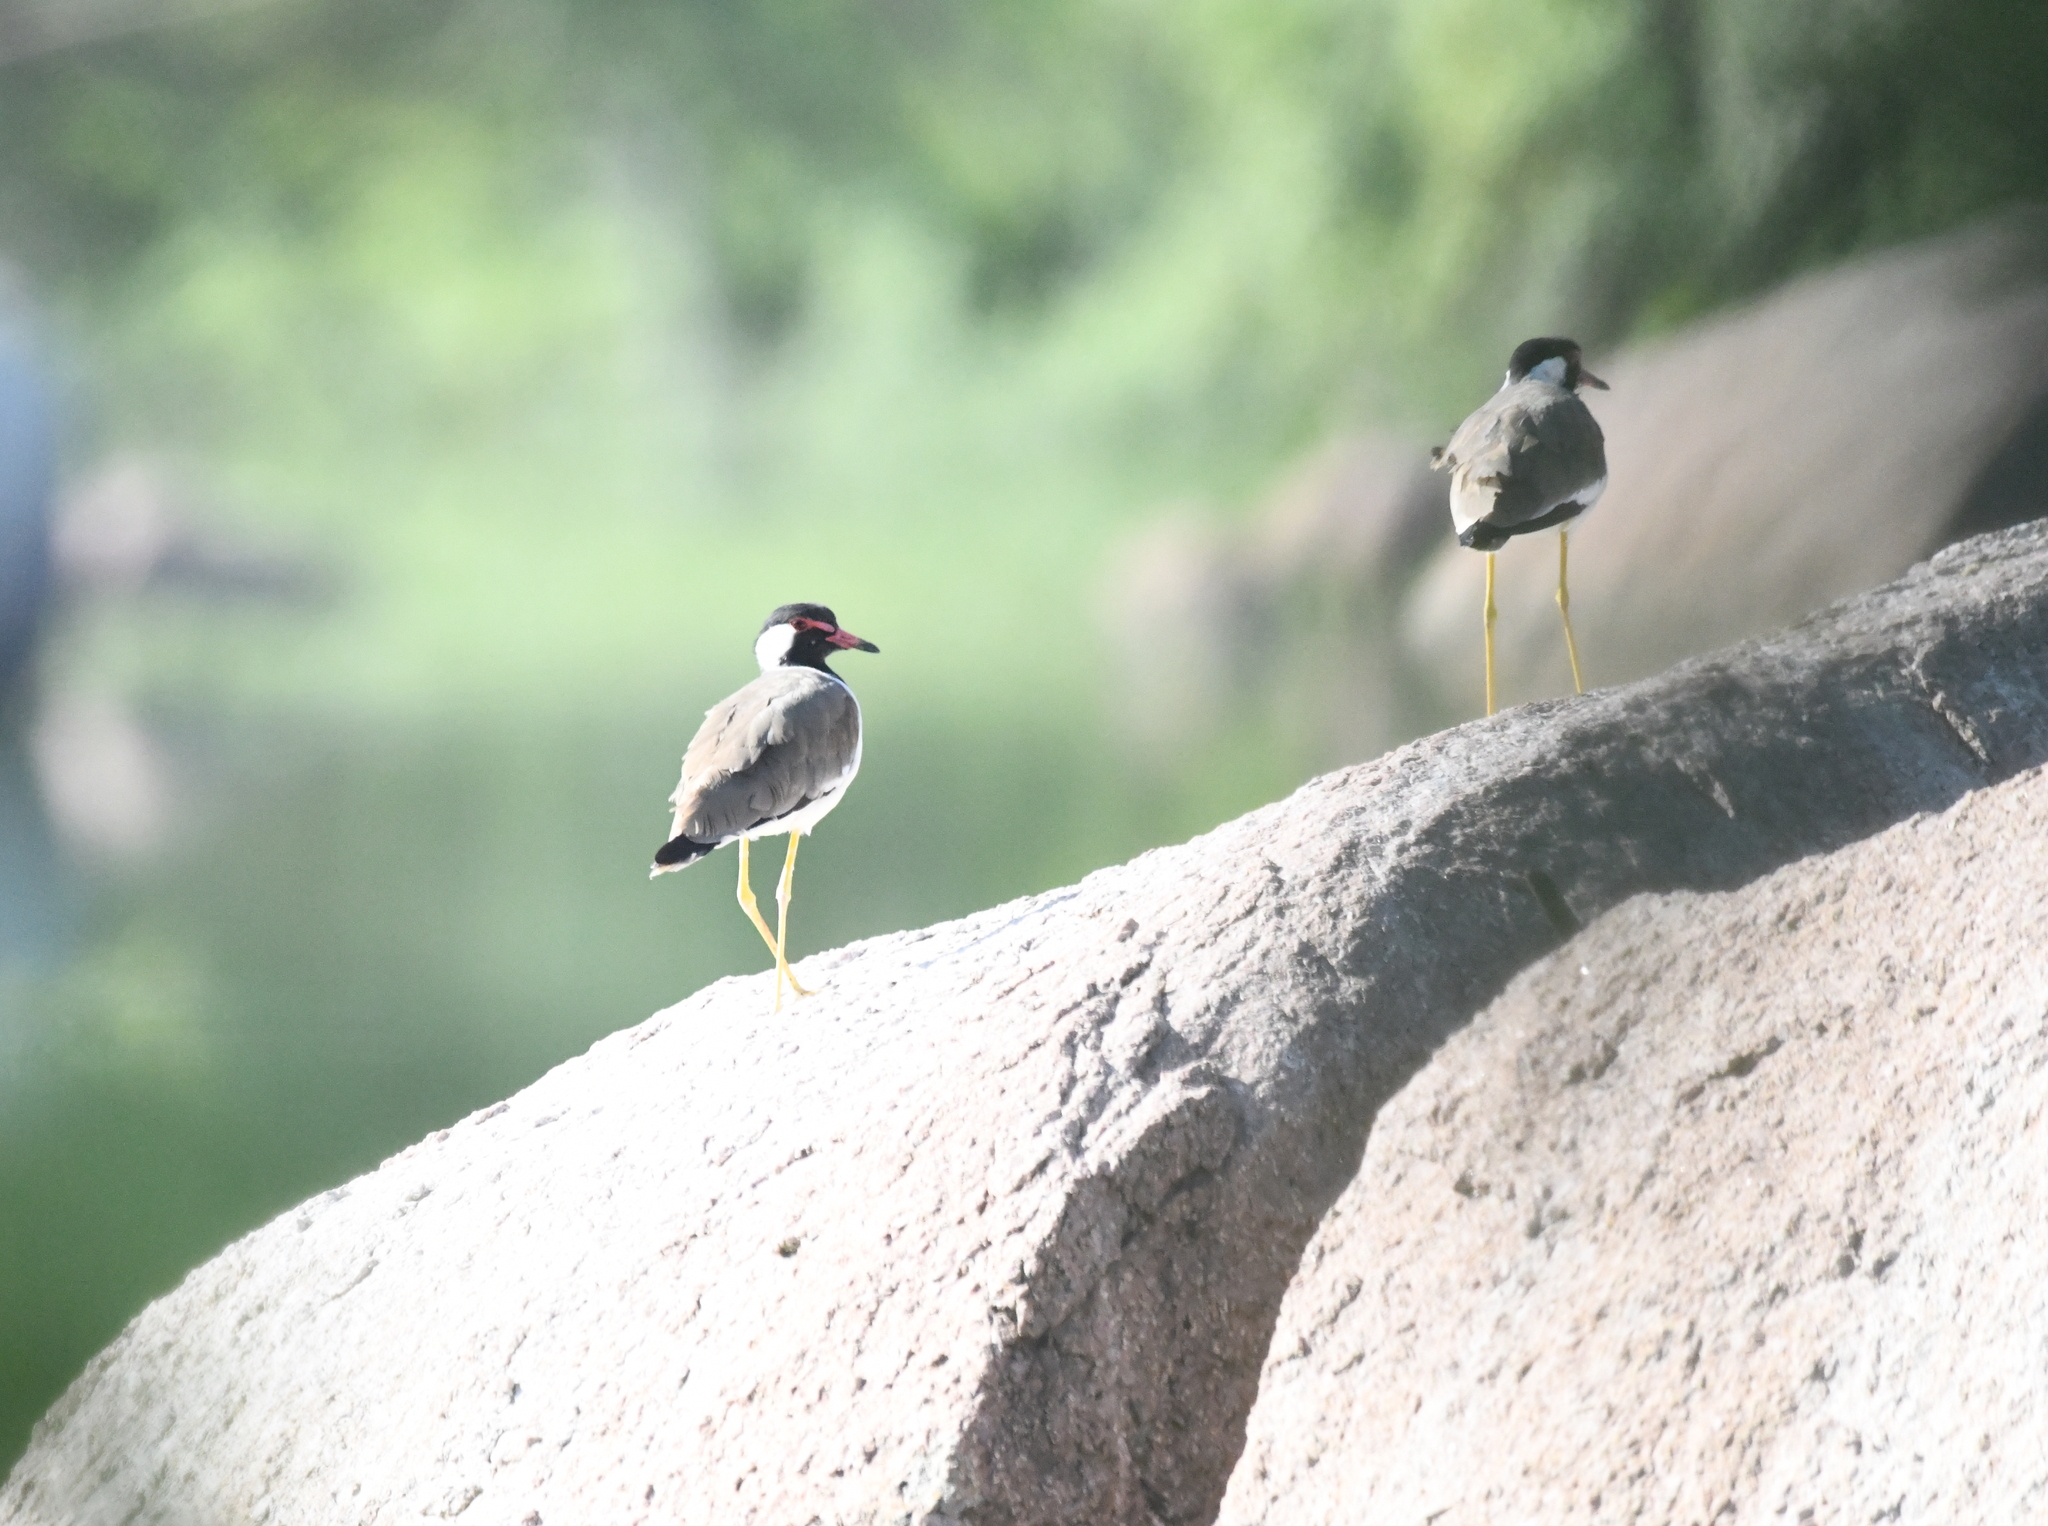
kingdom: Animalia
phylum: Chordata
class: Aves
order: Charadriiformes
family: Charadriidae
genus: Vanellus
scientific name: Vanellus indicus
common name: Red-wattled lapwing
